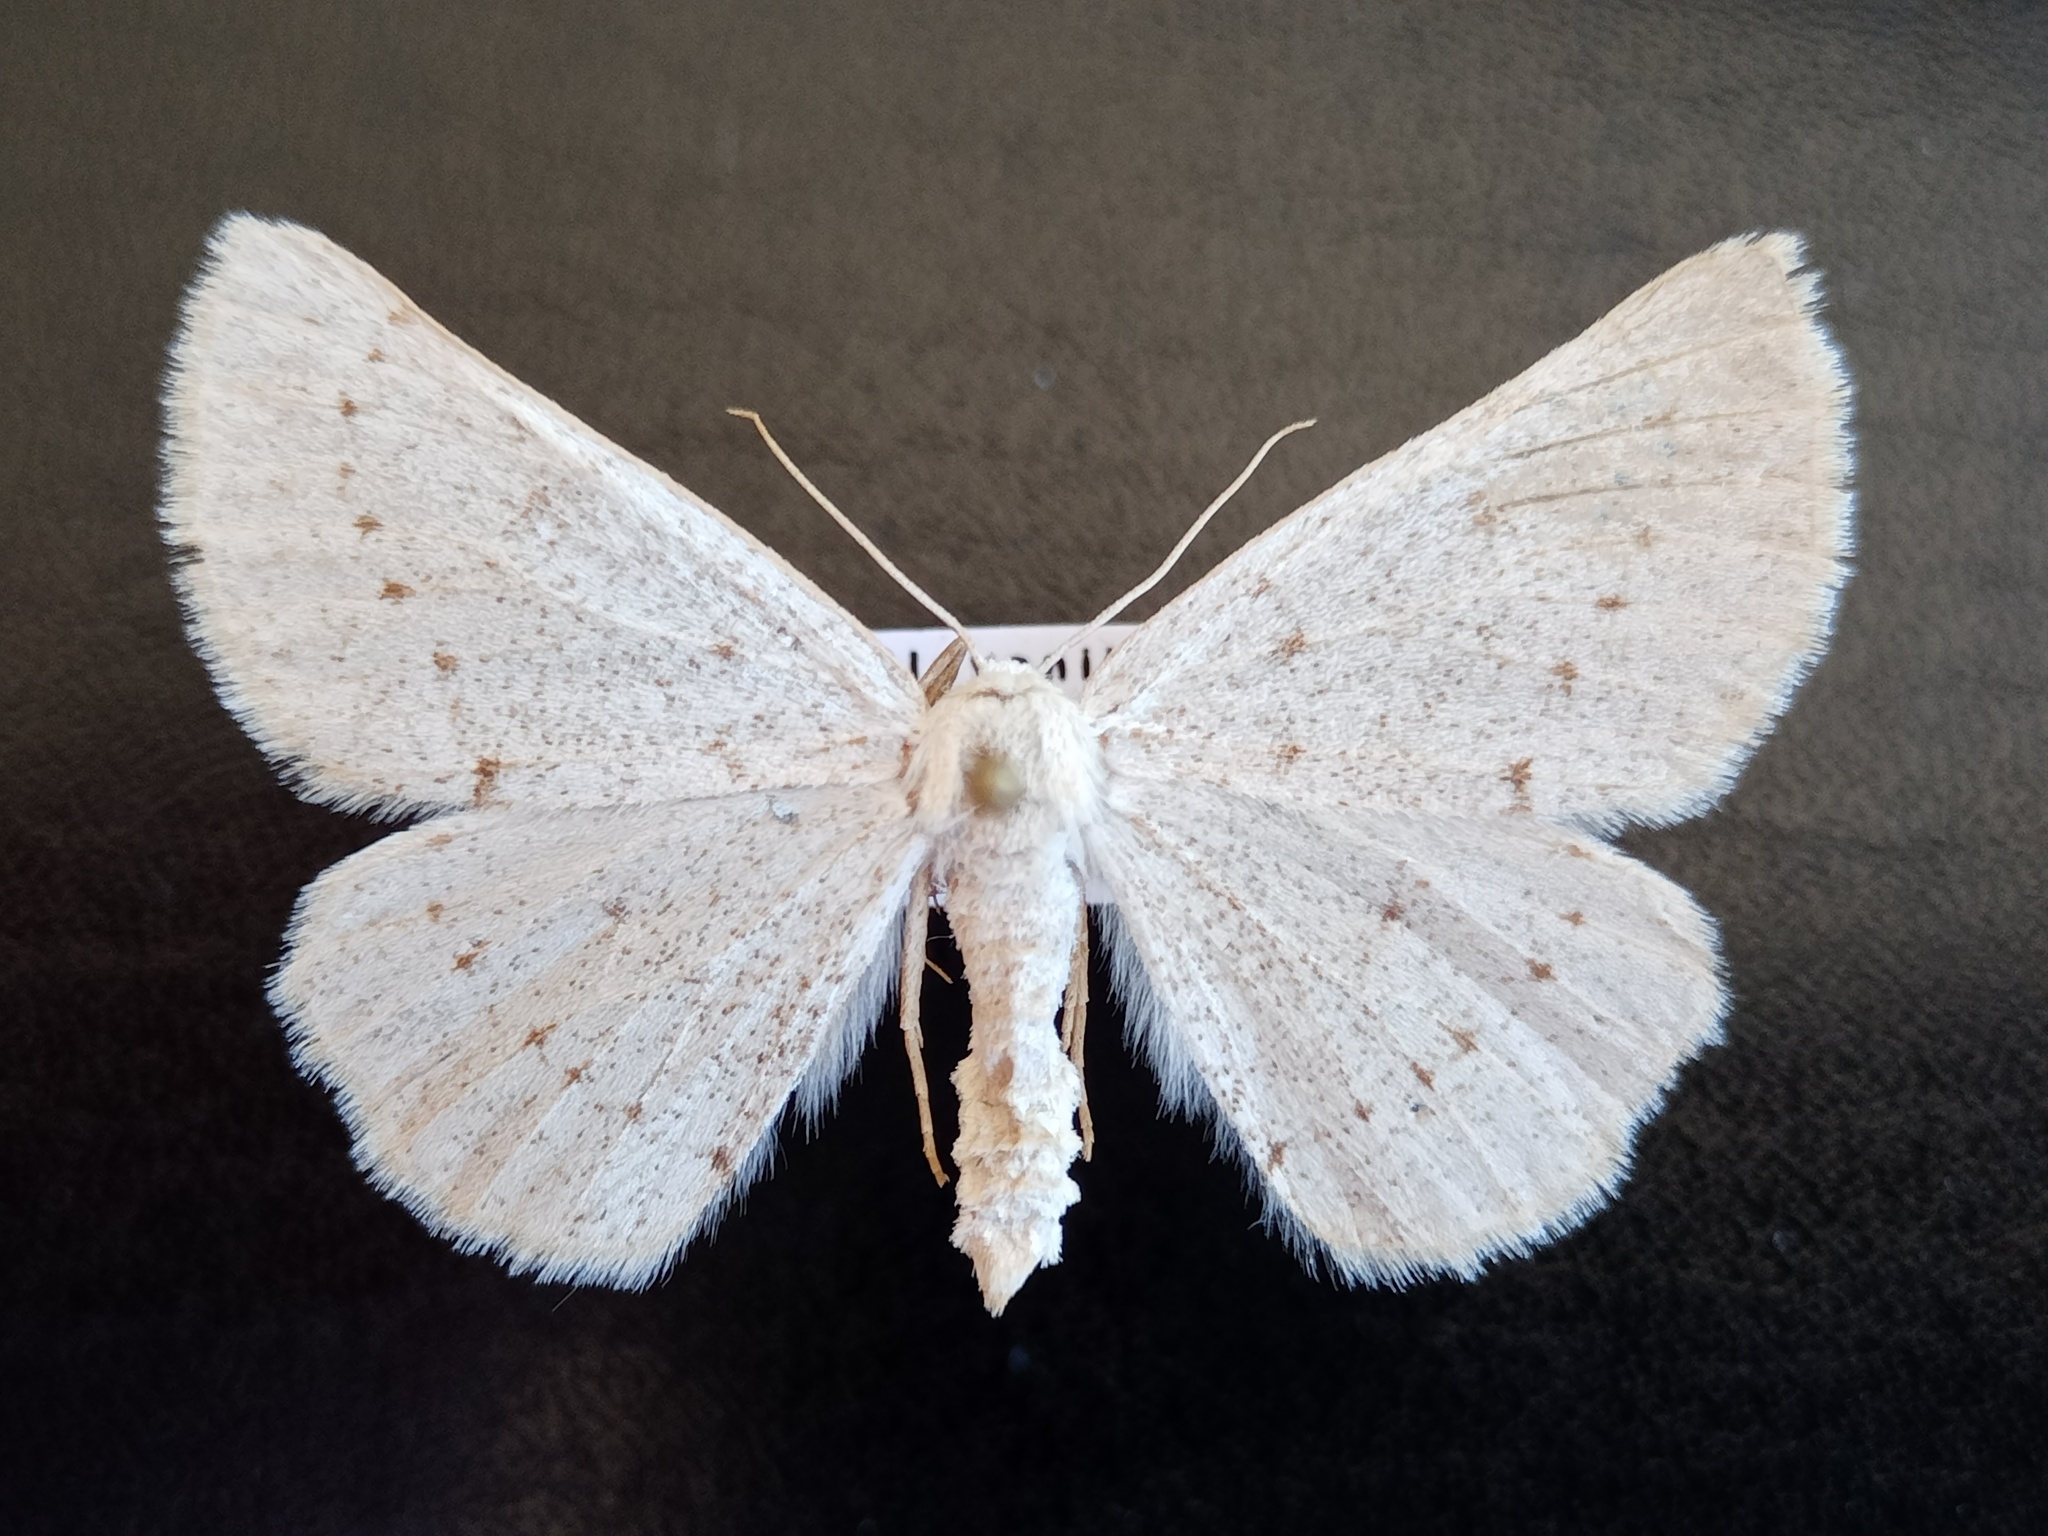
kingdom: Animalia
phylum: Arthropoda
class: Insecta
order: Lepidoptera
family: Geometridae
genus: Dyscia
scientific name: Dyscia raunaria
